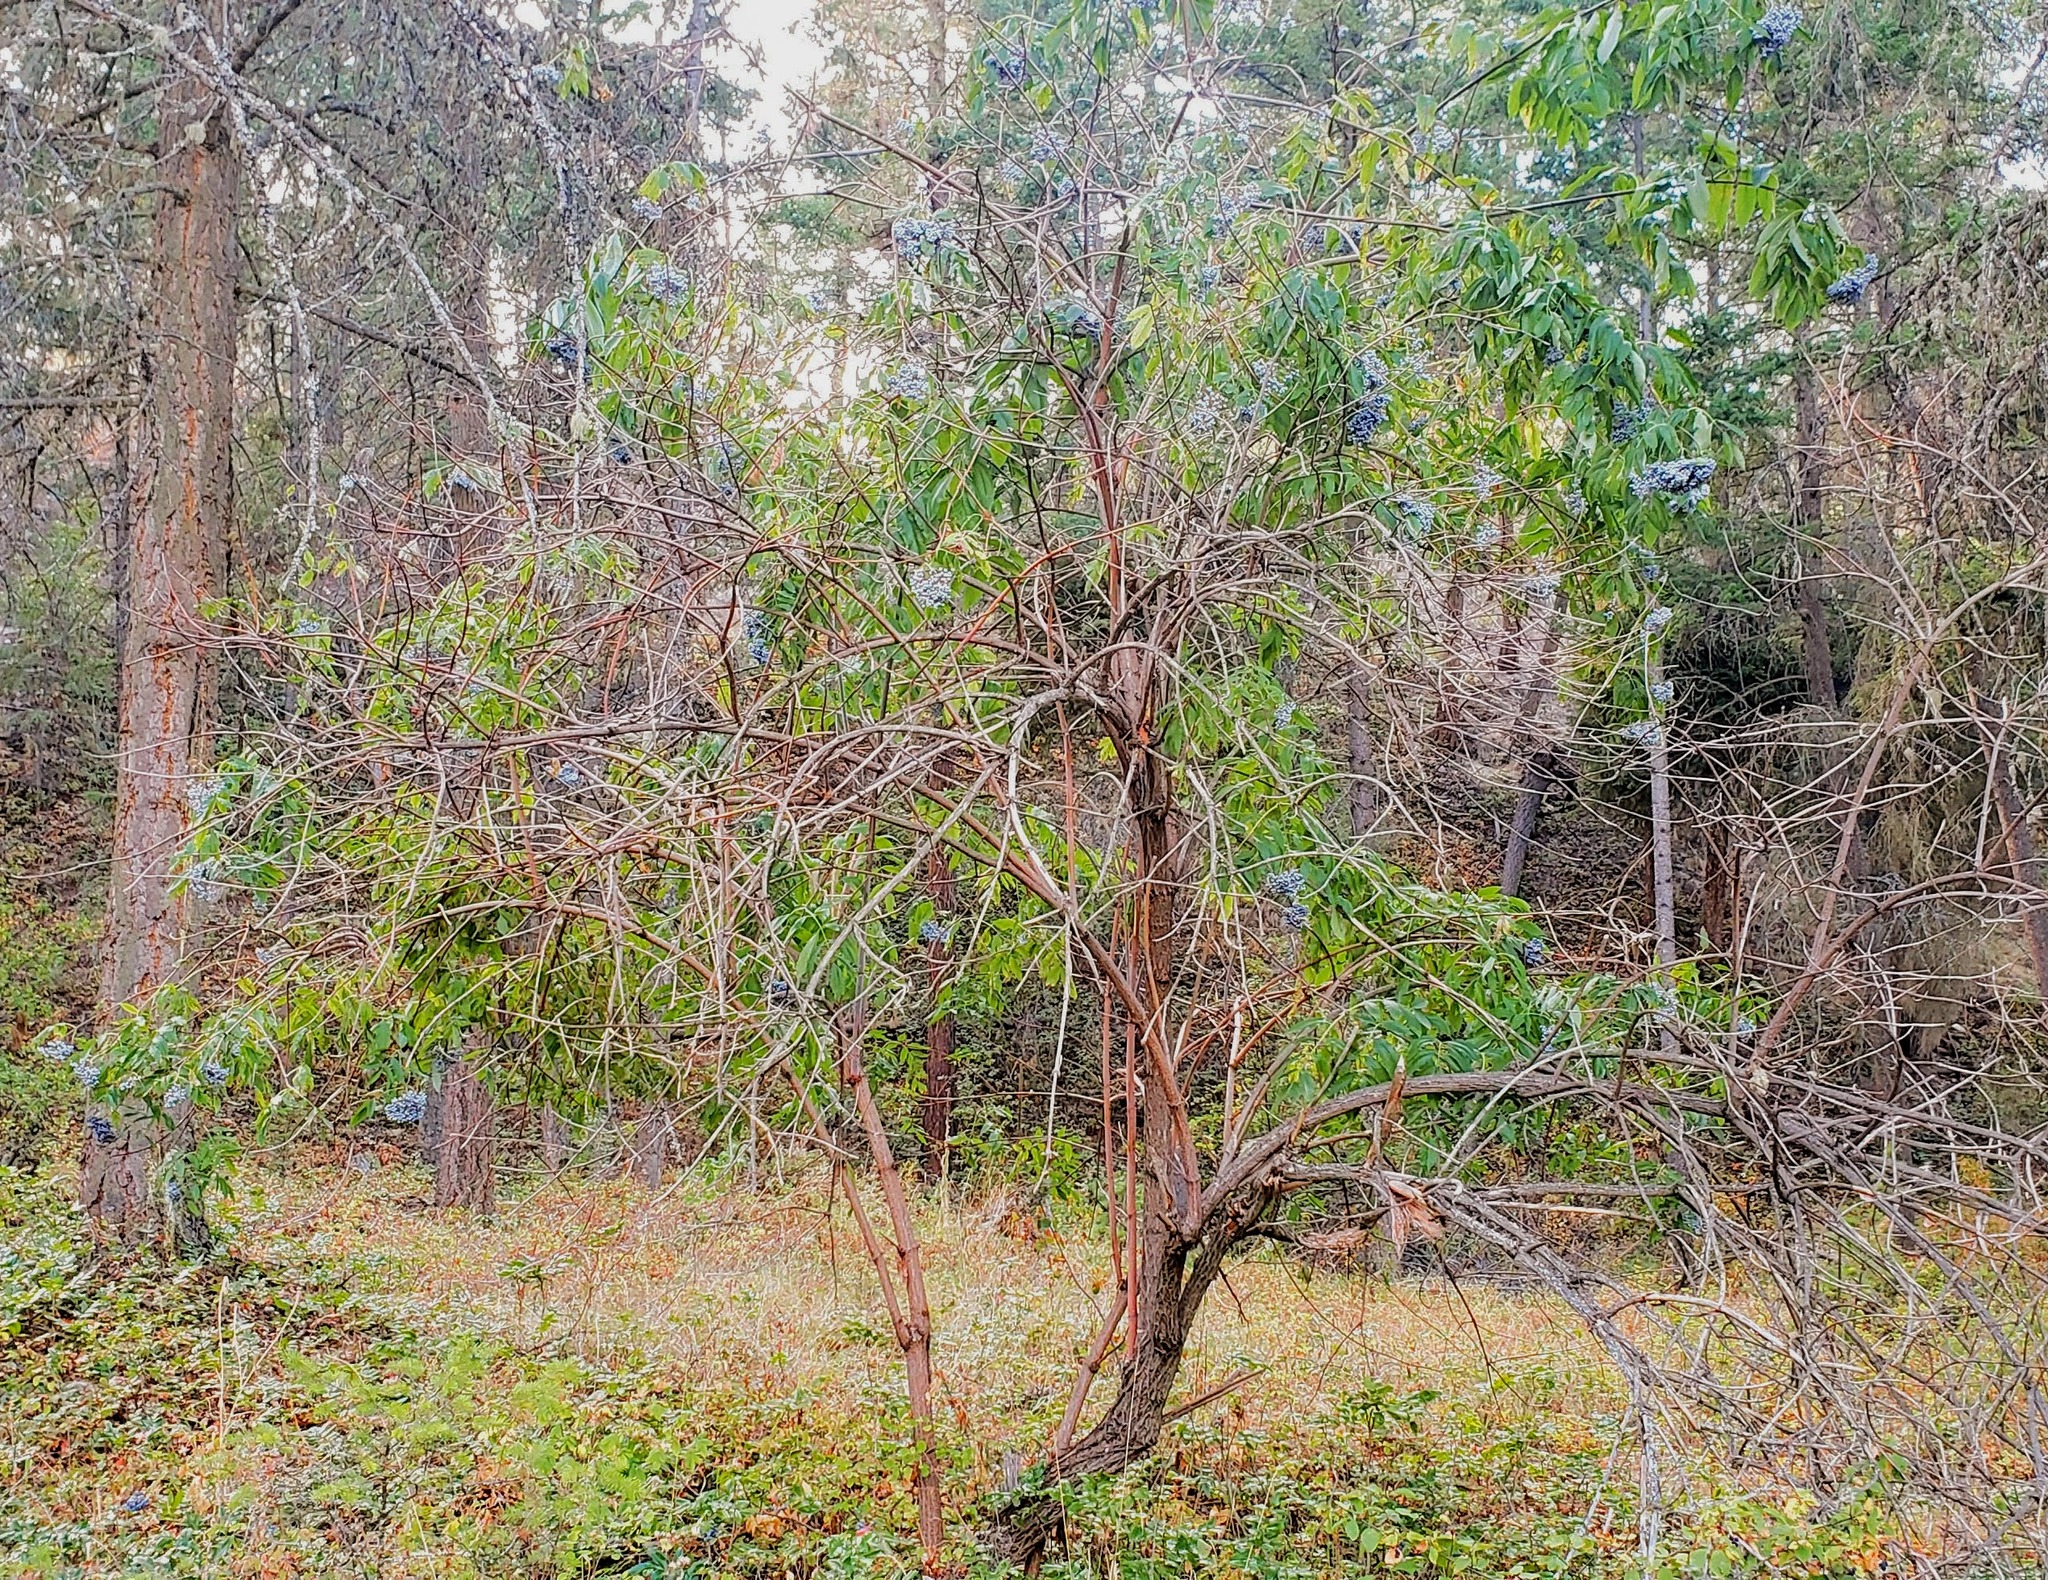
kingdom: Plantae
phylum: Tracheophyta
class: Magnoliopsida
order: Dipsacales
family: Viburnaceae
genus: Sambucus
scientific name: Sambucus cerulea
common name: Blue elder
